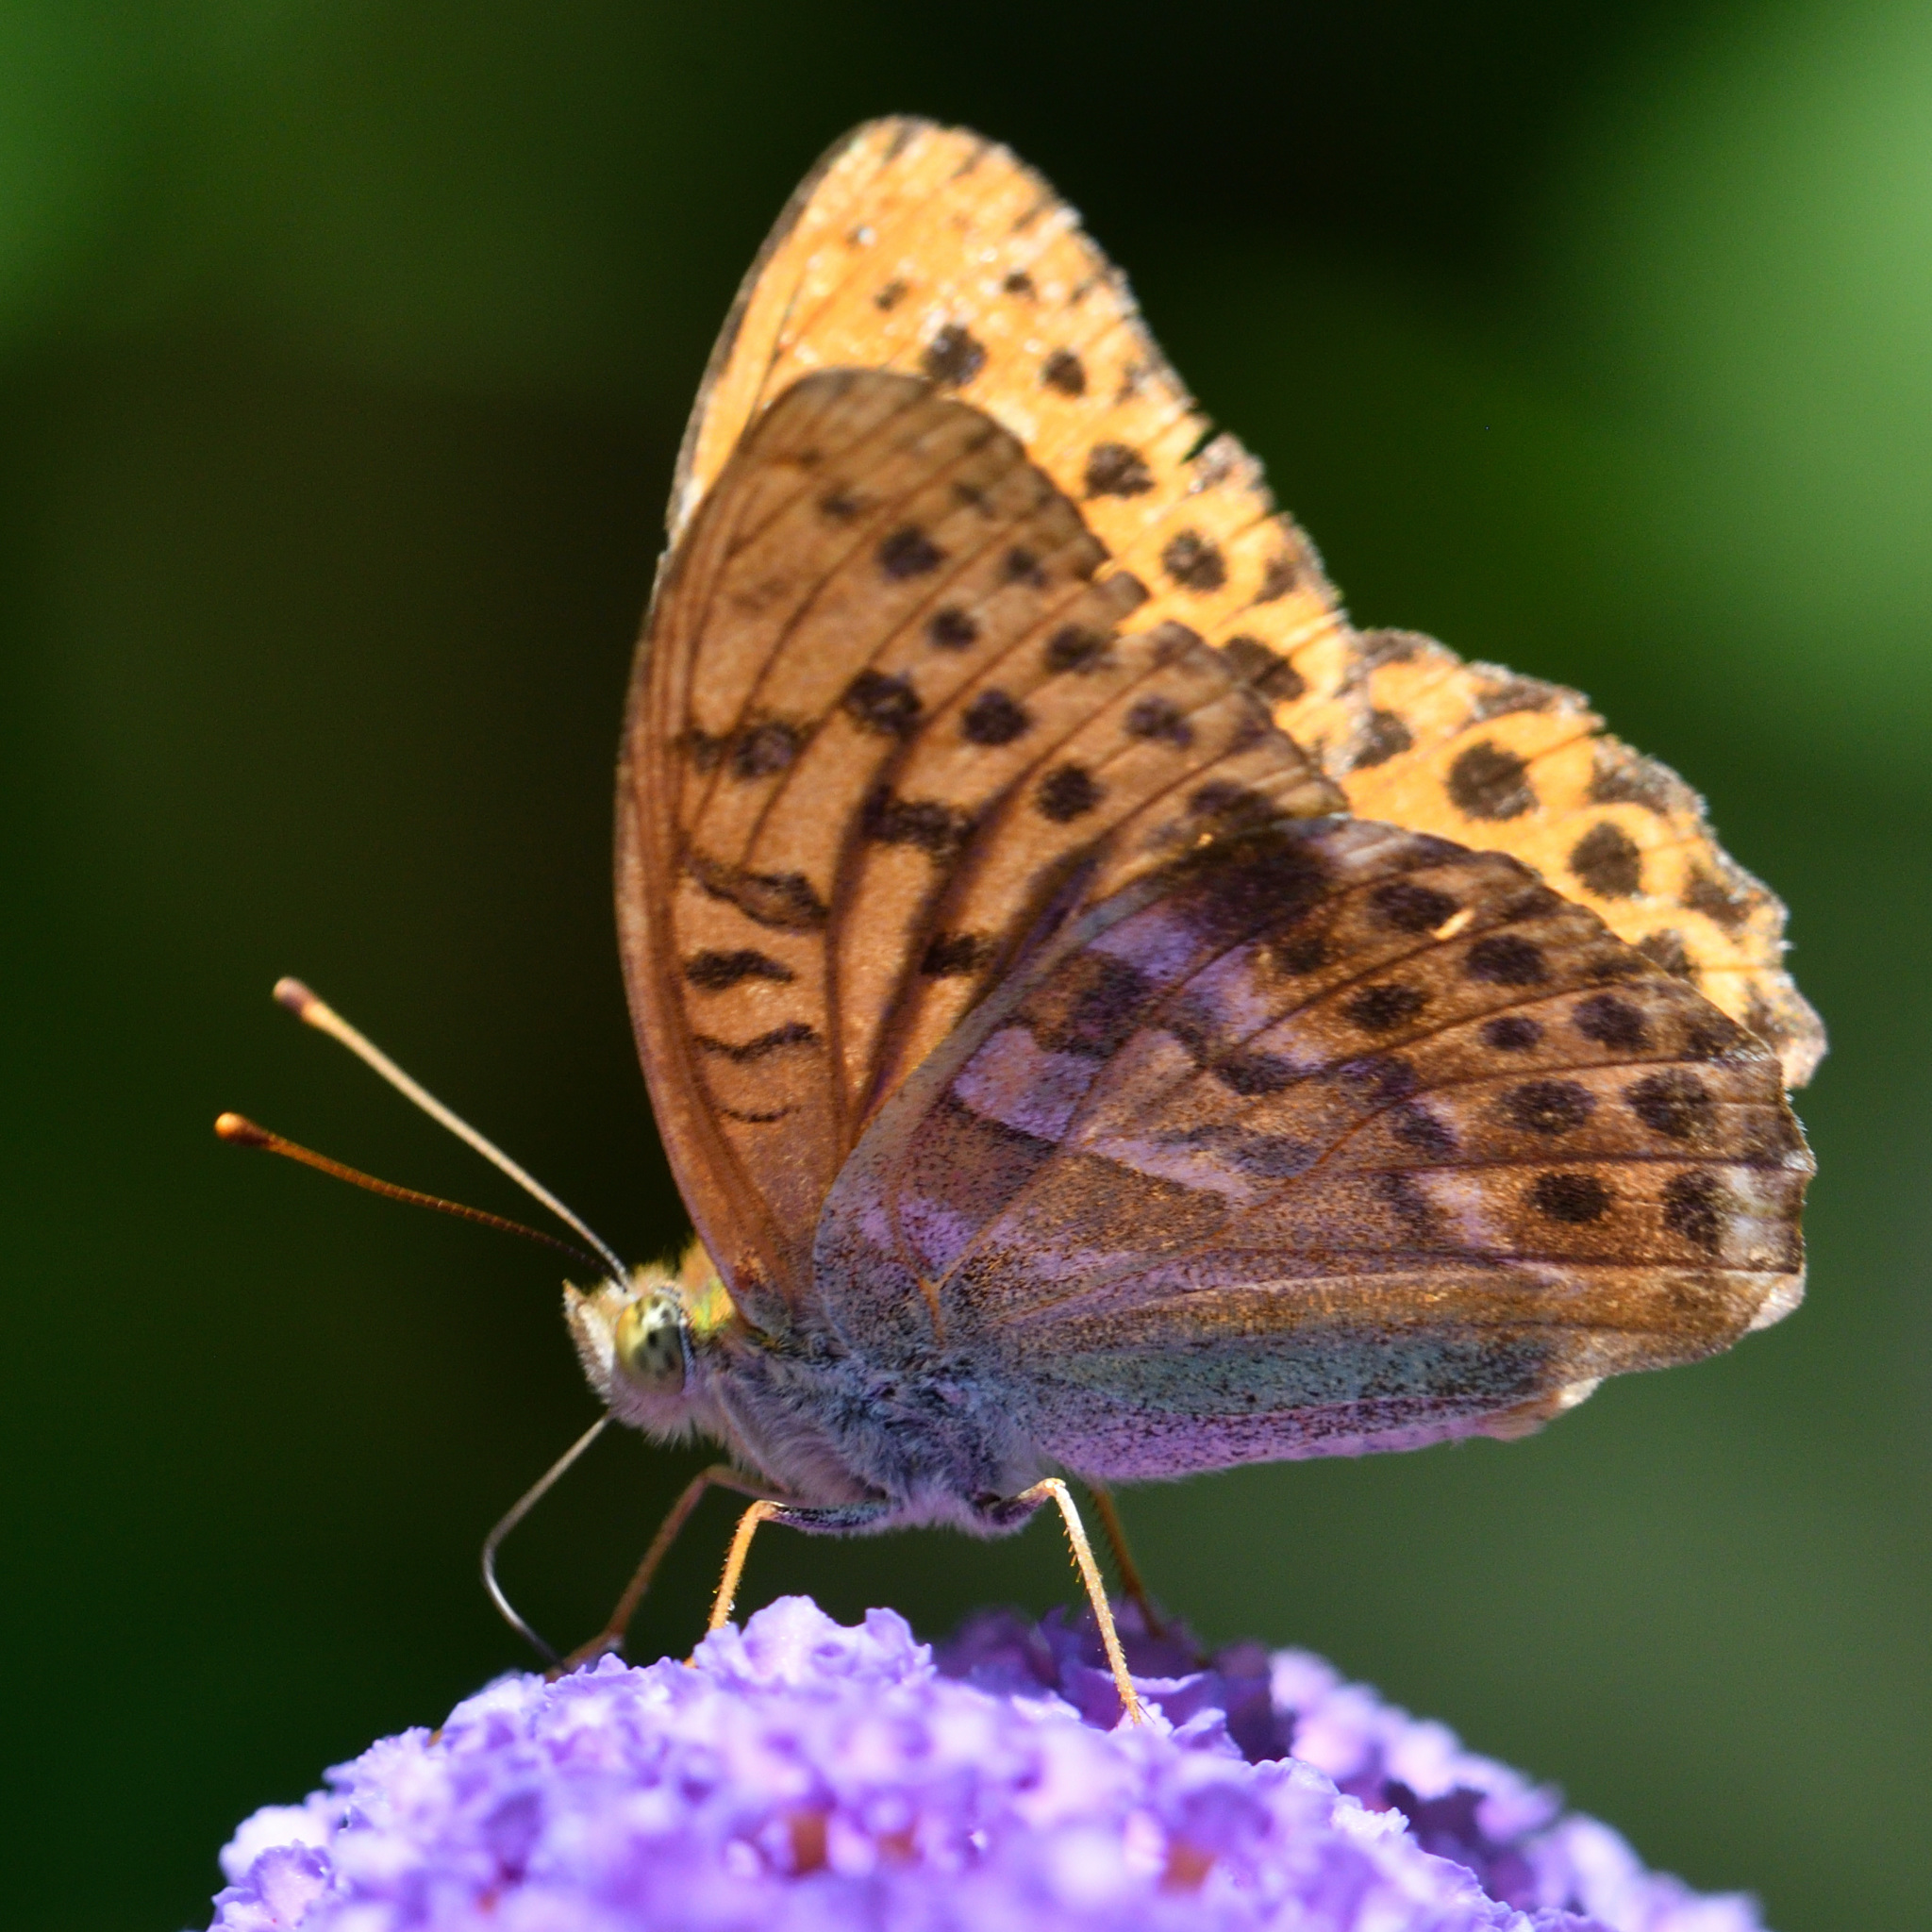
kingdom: Animalia
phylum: Arthropoda
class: Insecta
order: Lepidoptera
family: Nymphalidae
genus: Argynnis
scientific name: Argynnis paphia
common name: Silver-washed fritillary
